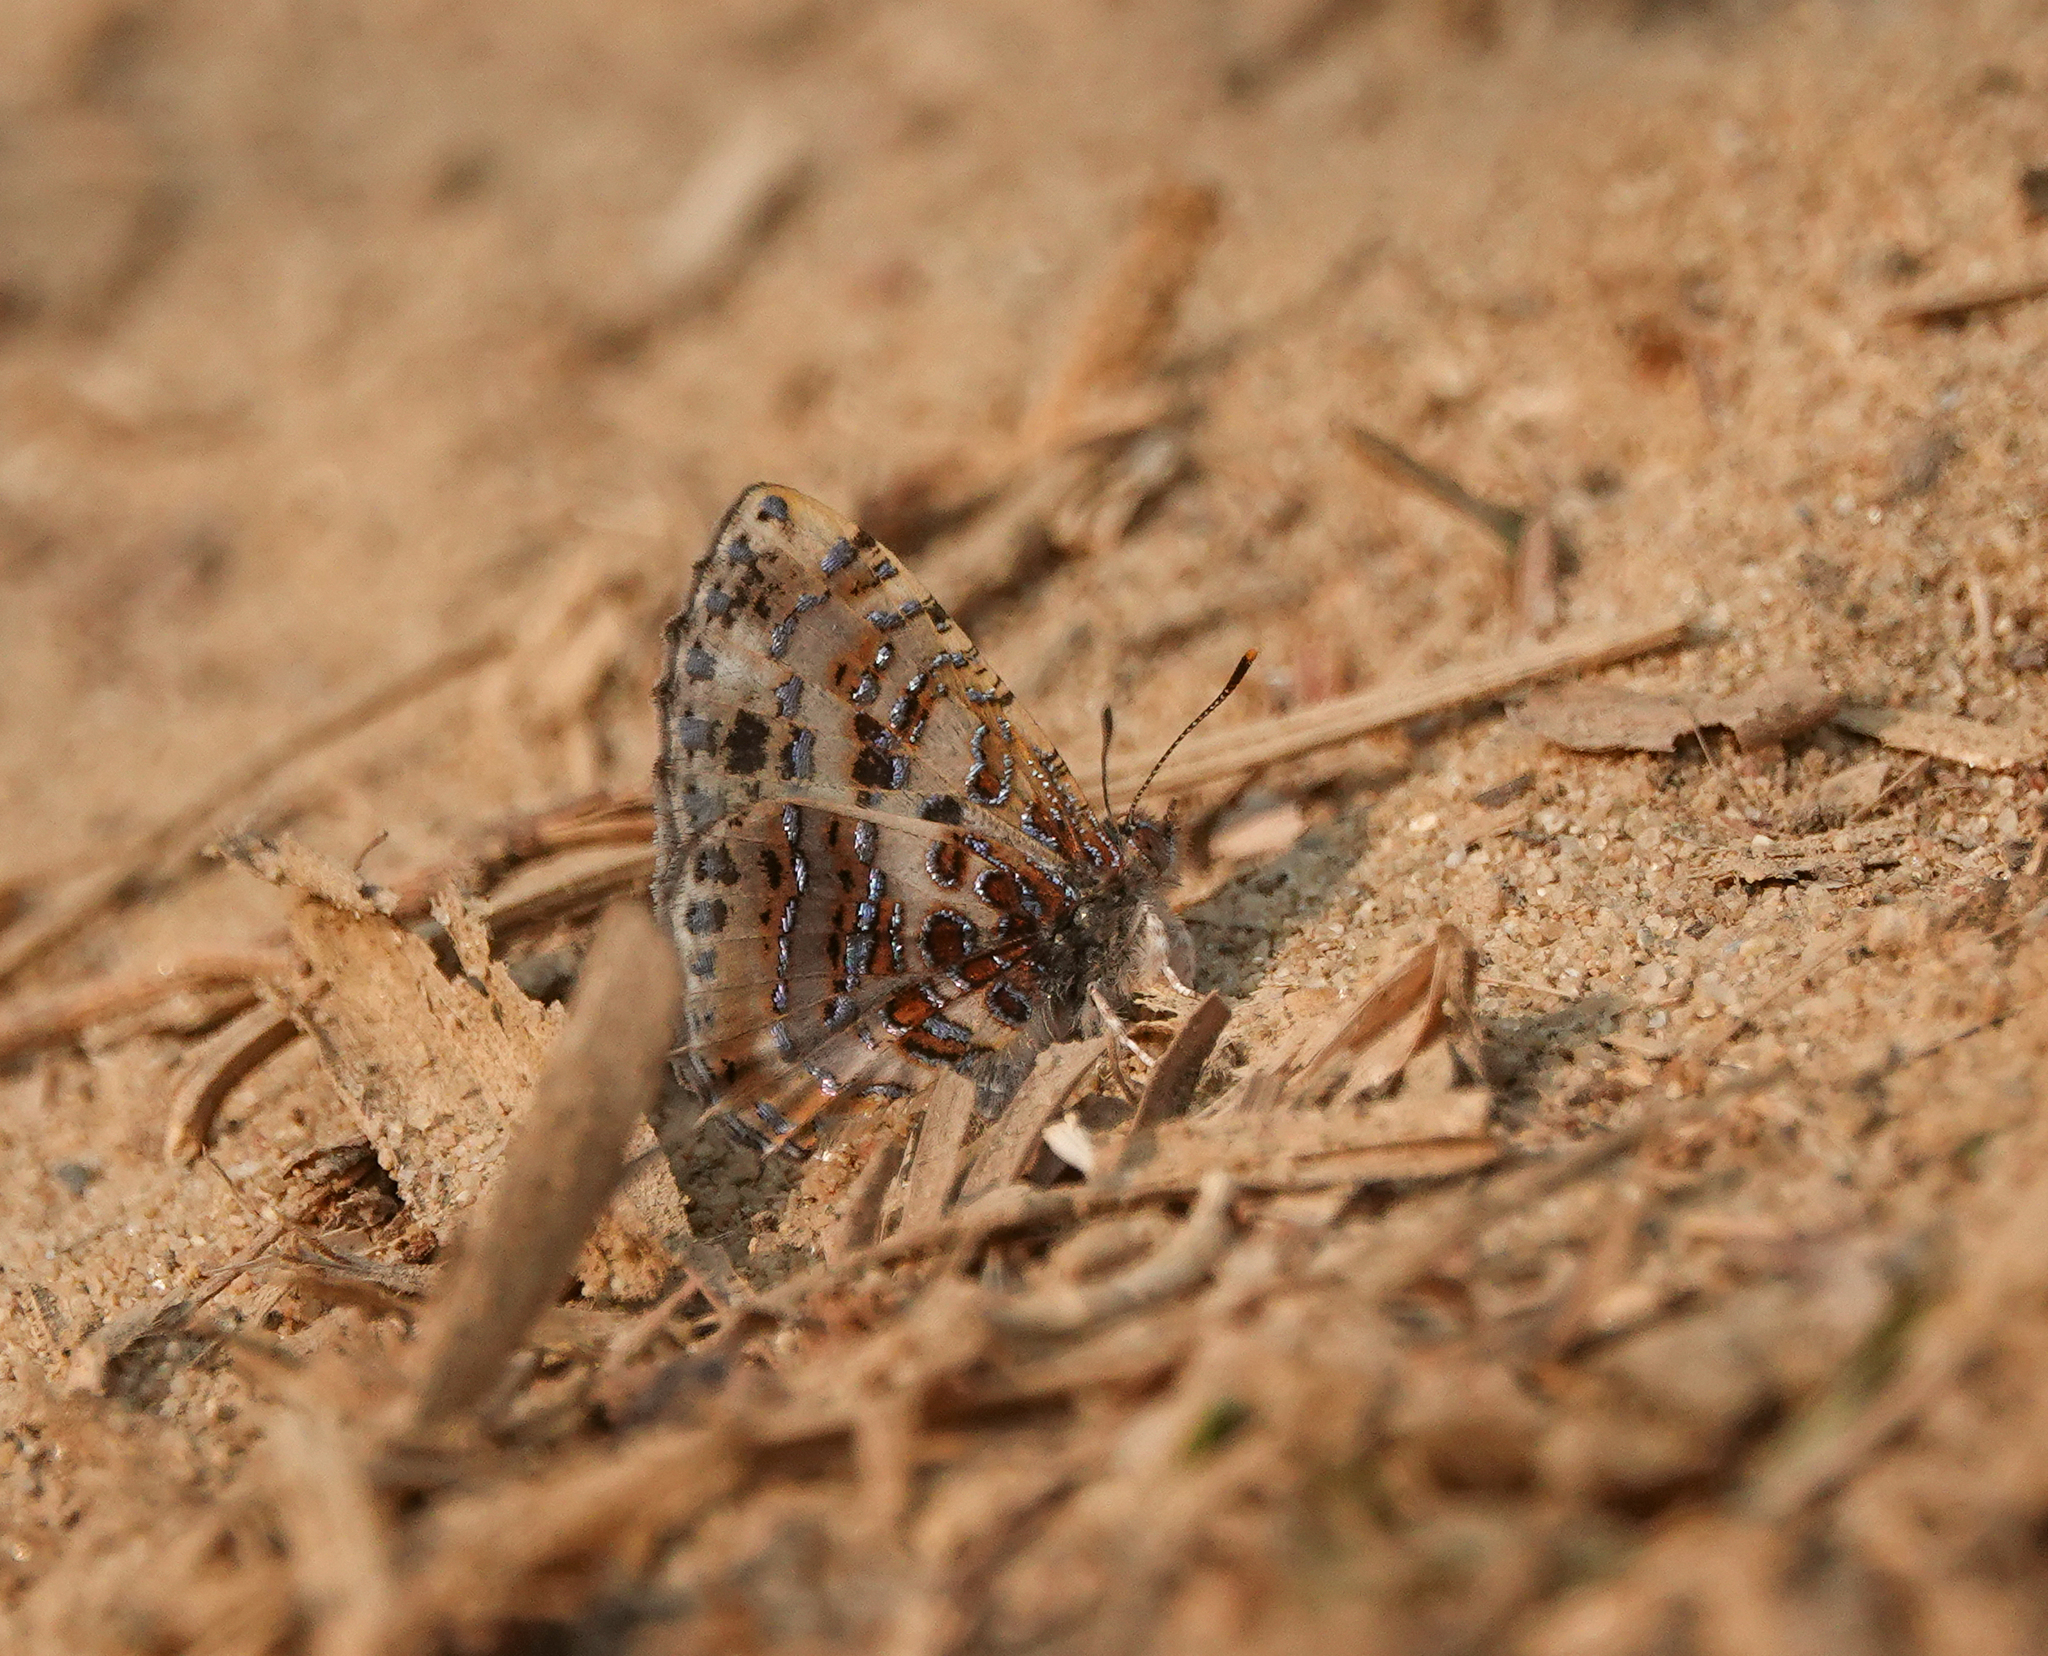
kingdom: Animalia
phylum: Arthropoda
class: Insecta
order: Lepidoptera
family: Lycaenidae
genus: Catapaecilma
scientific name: Catapaecilma major
